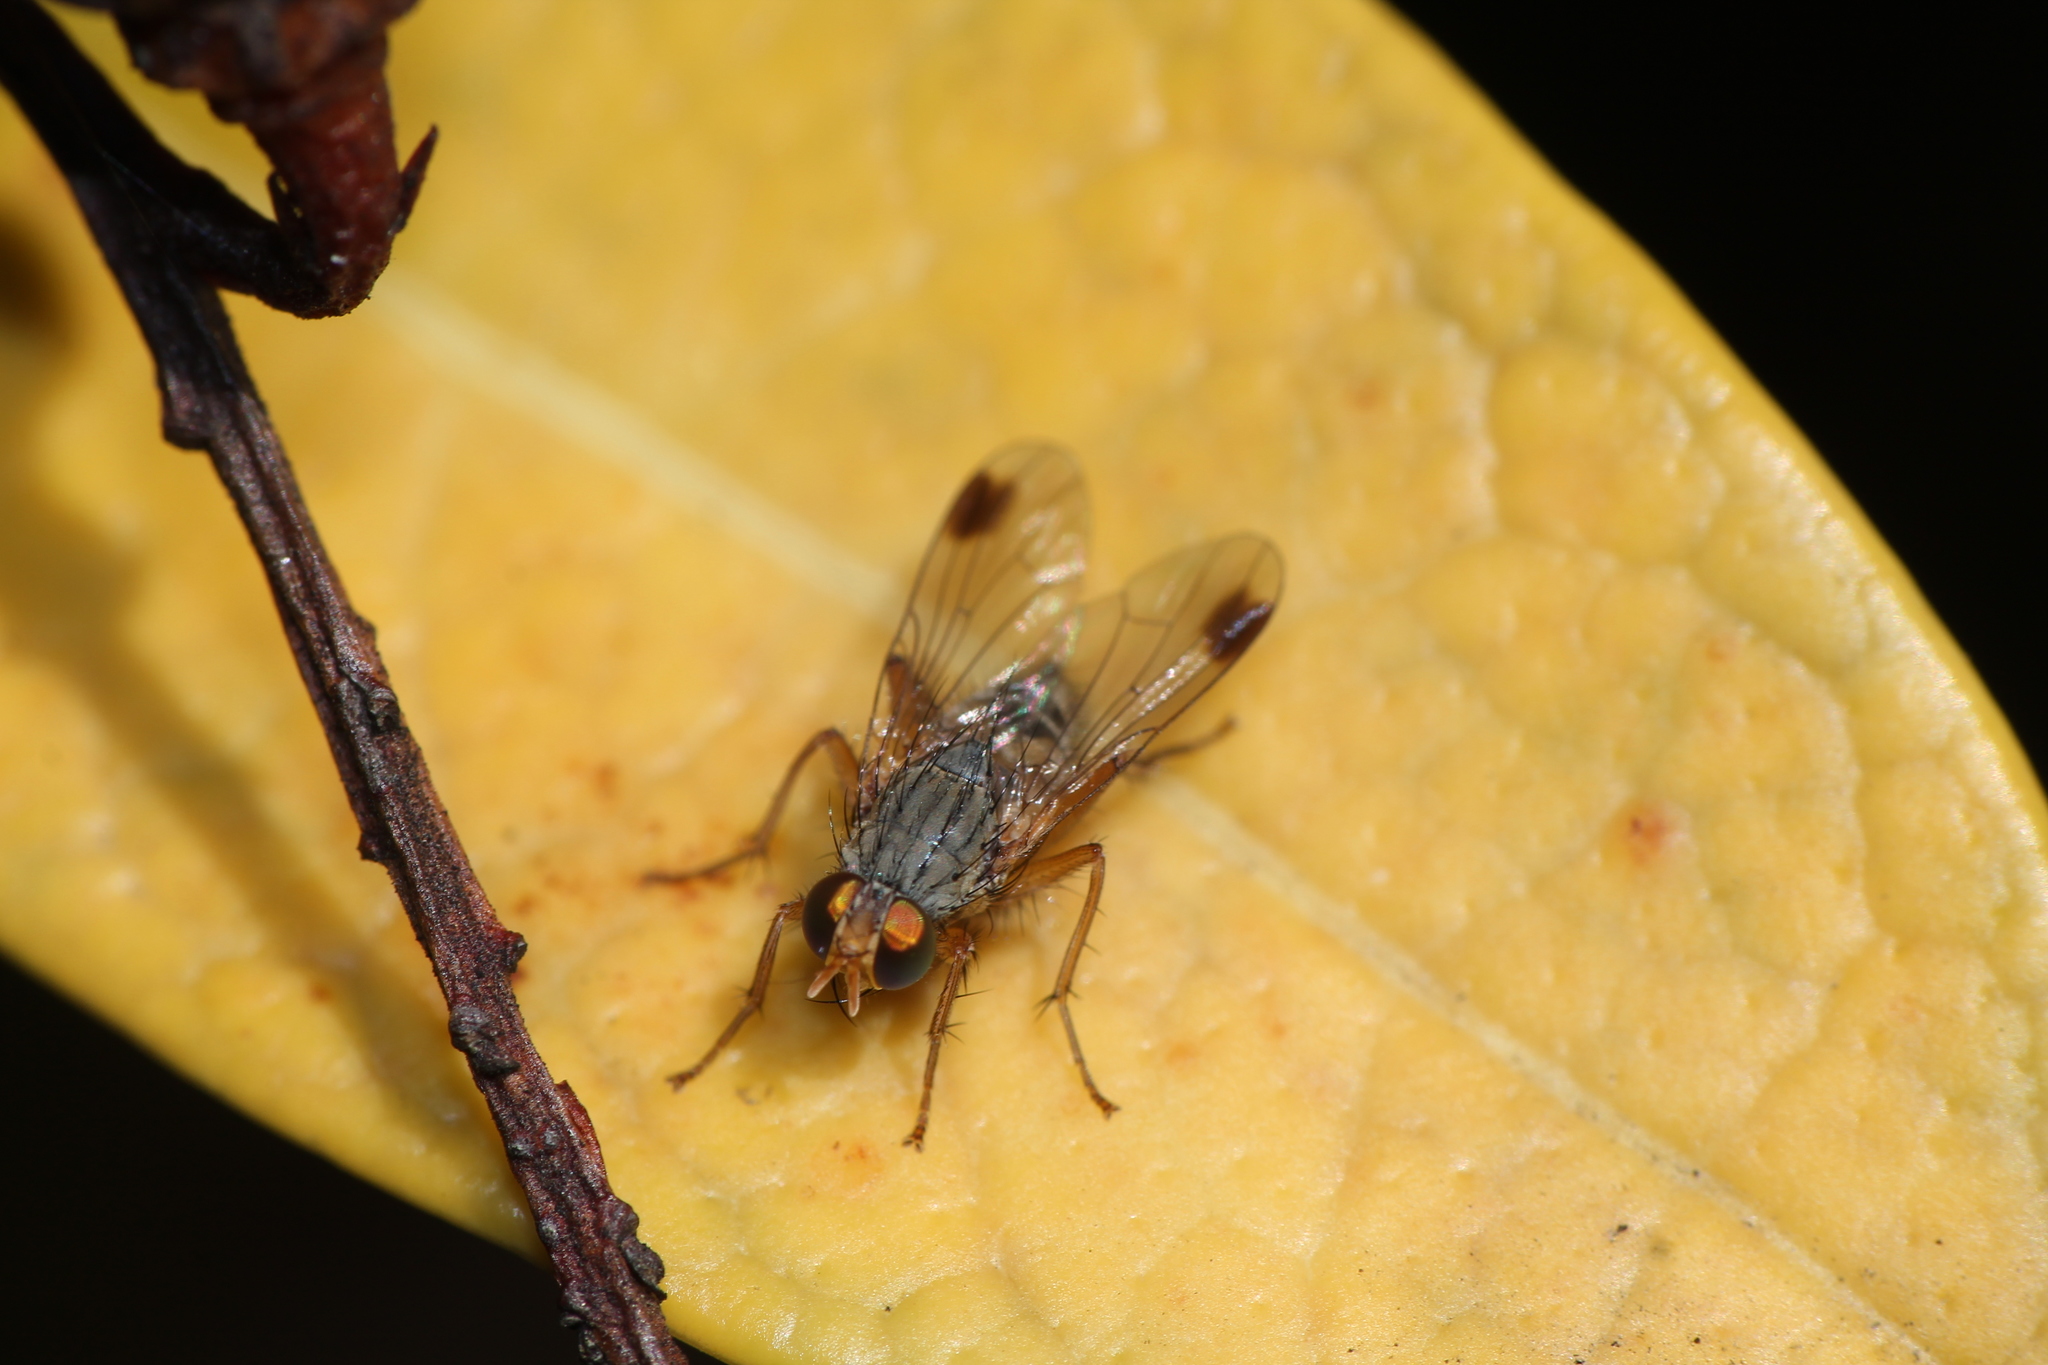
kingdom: Animalia
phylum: Arthropoda
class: Insecta
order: Diptera
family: Muscidae
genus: Pygophora
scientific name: Pygophora apicalis
